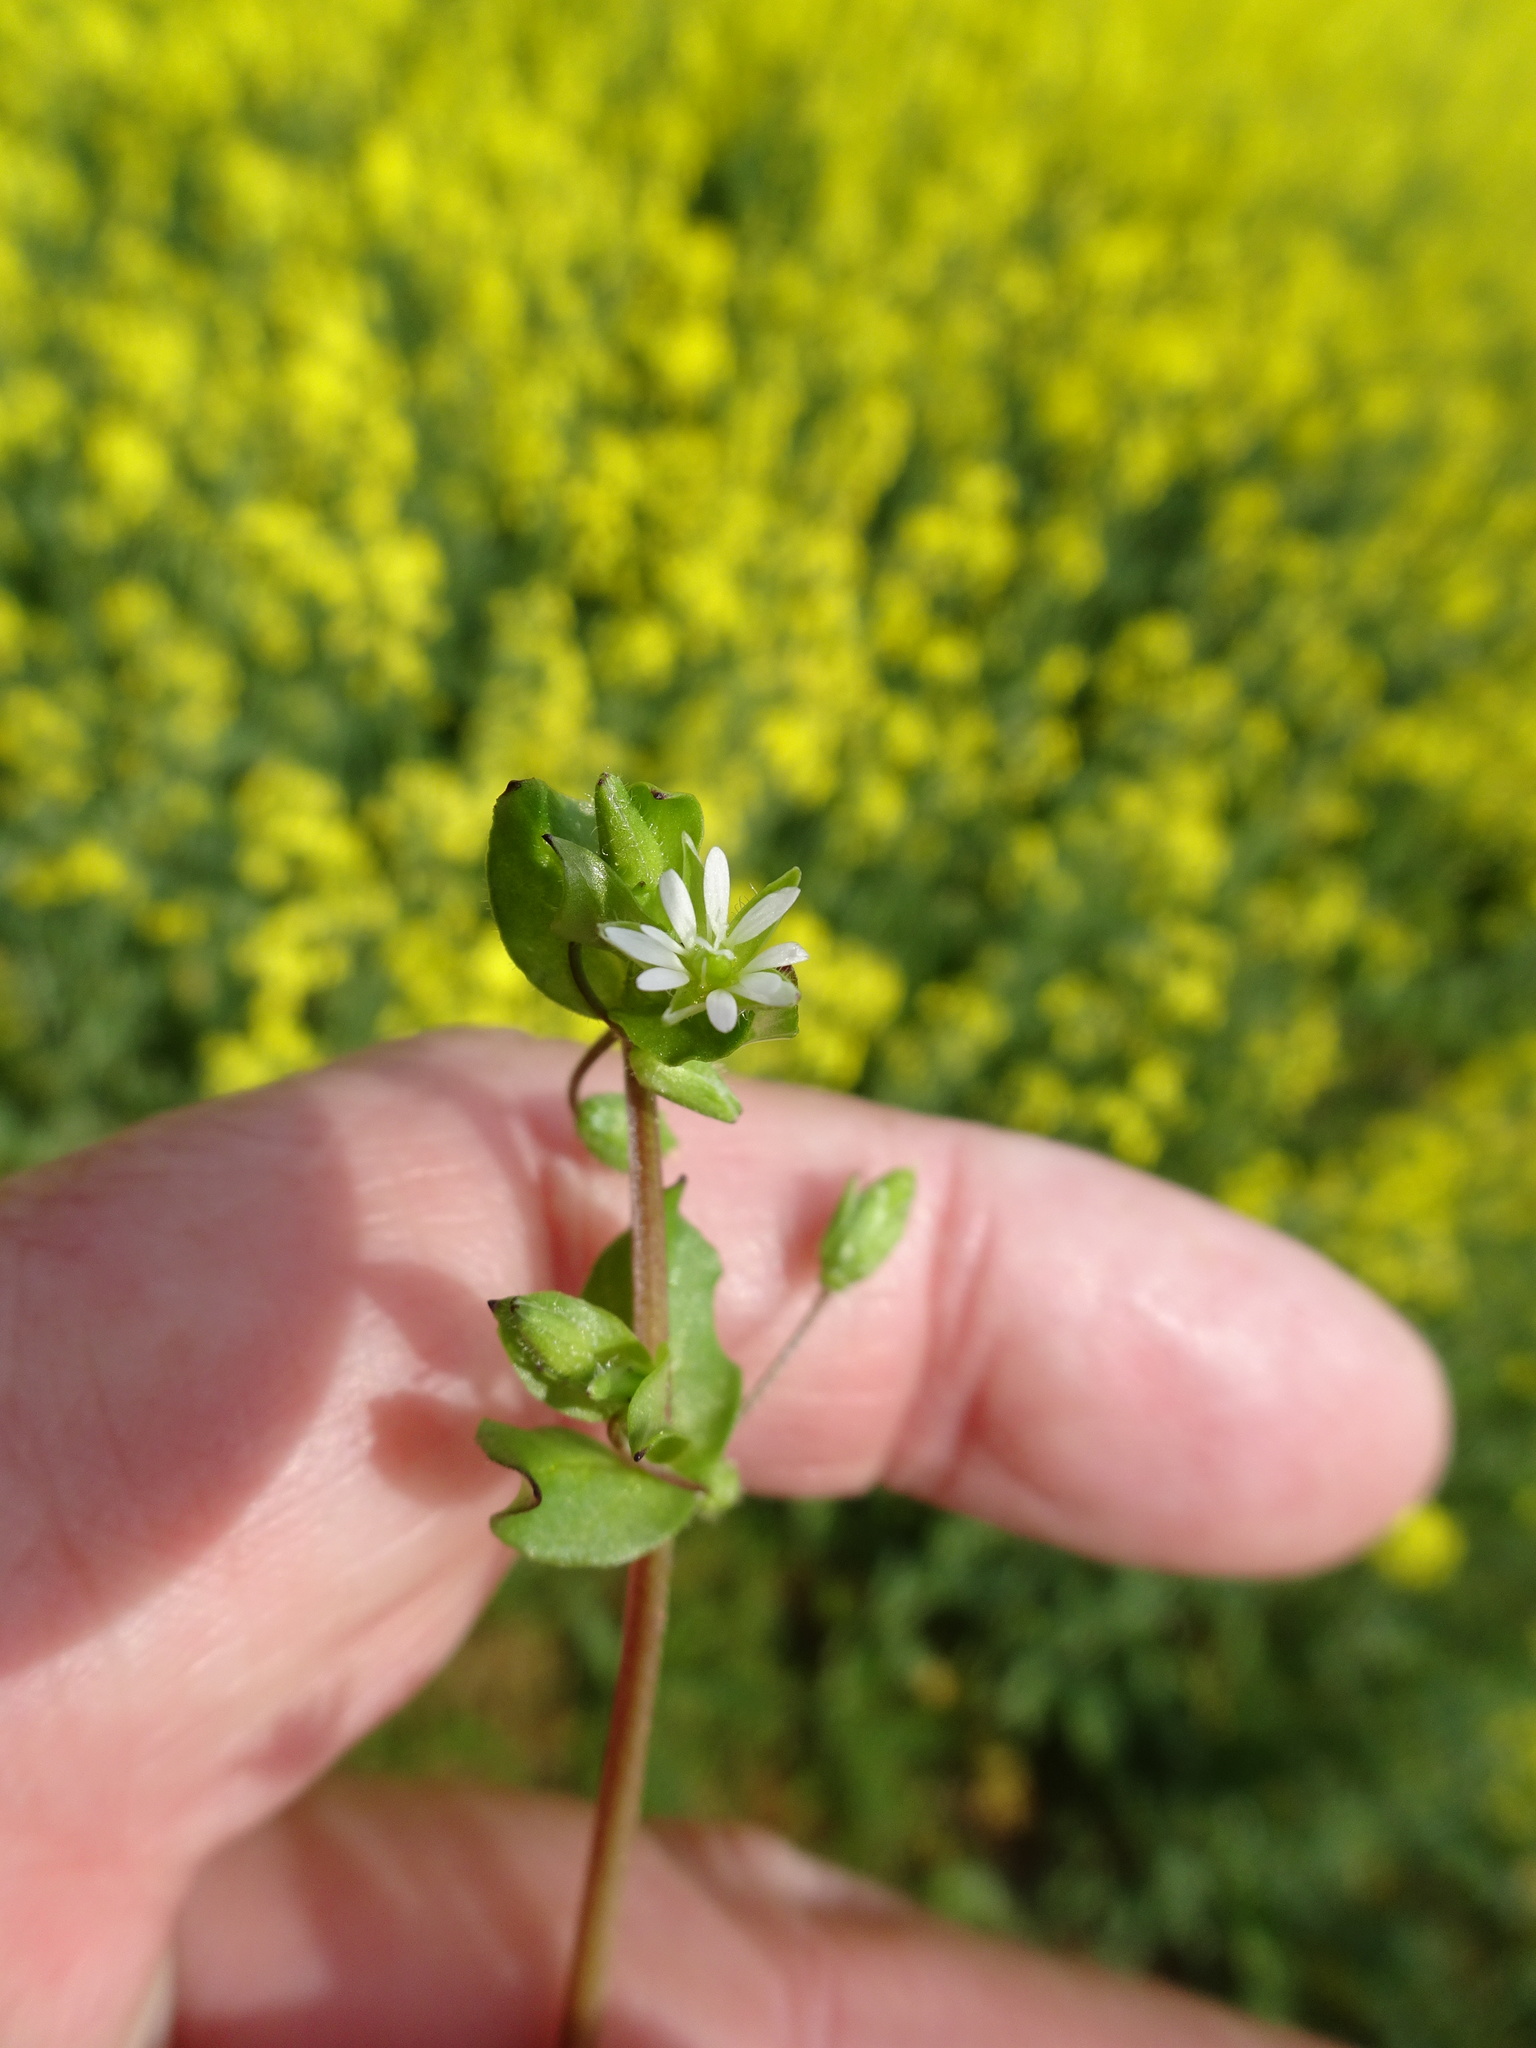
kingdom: Plantae
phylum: Tracheophyta
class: Magnoliopsida
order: Caryophyllales
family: Caryophyllaceae
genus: Stellaria
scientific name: Stellaria media
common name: Common chickweed
